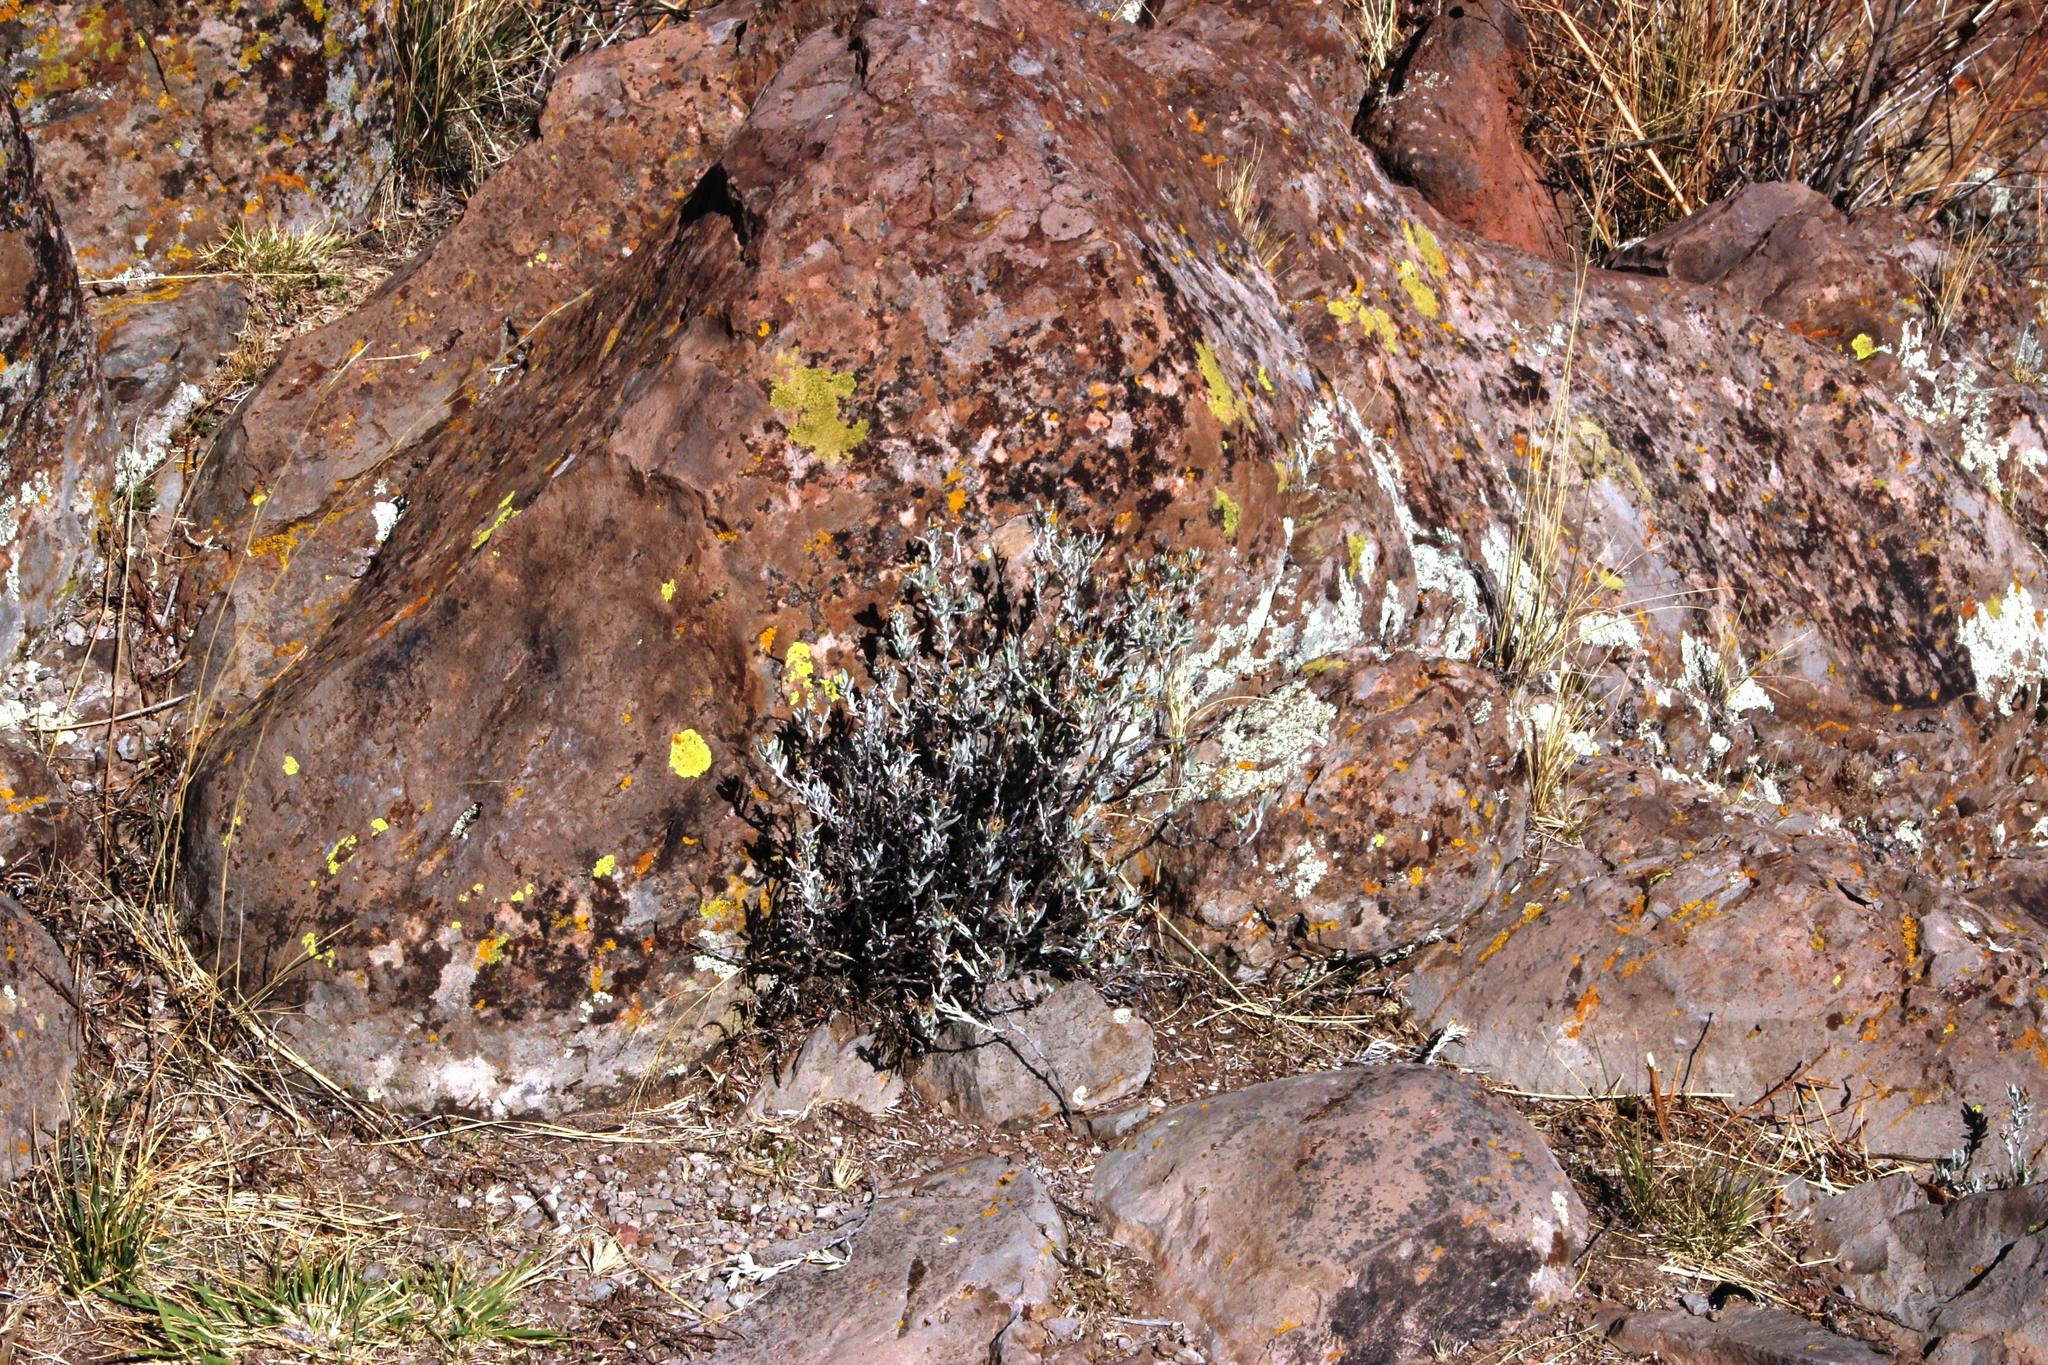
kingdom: Plantae
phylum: Tracheophyta
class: Magnoliopsida
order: Asterales
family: Asteraceae
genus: Chersodoma
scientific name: Chersodoma jodopappa
